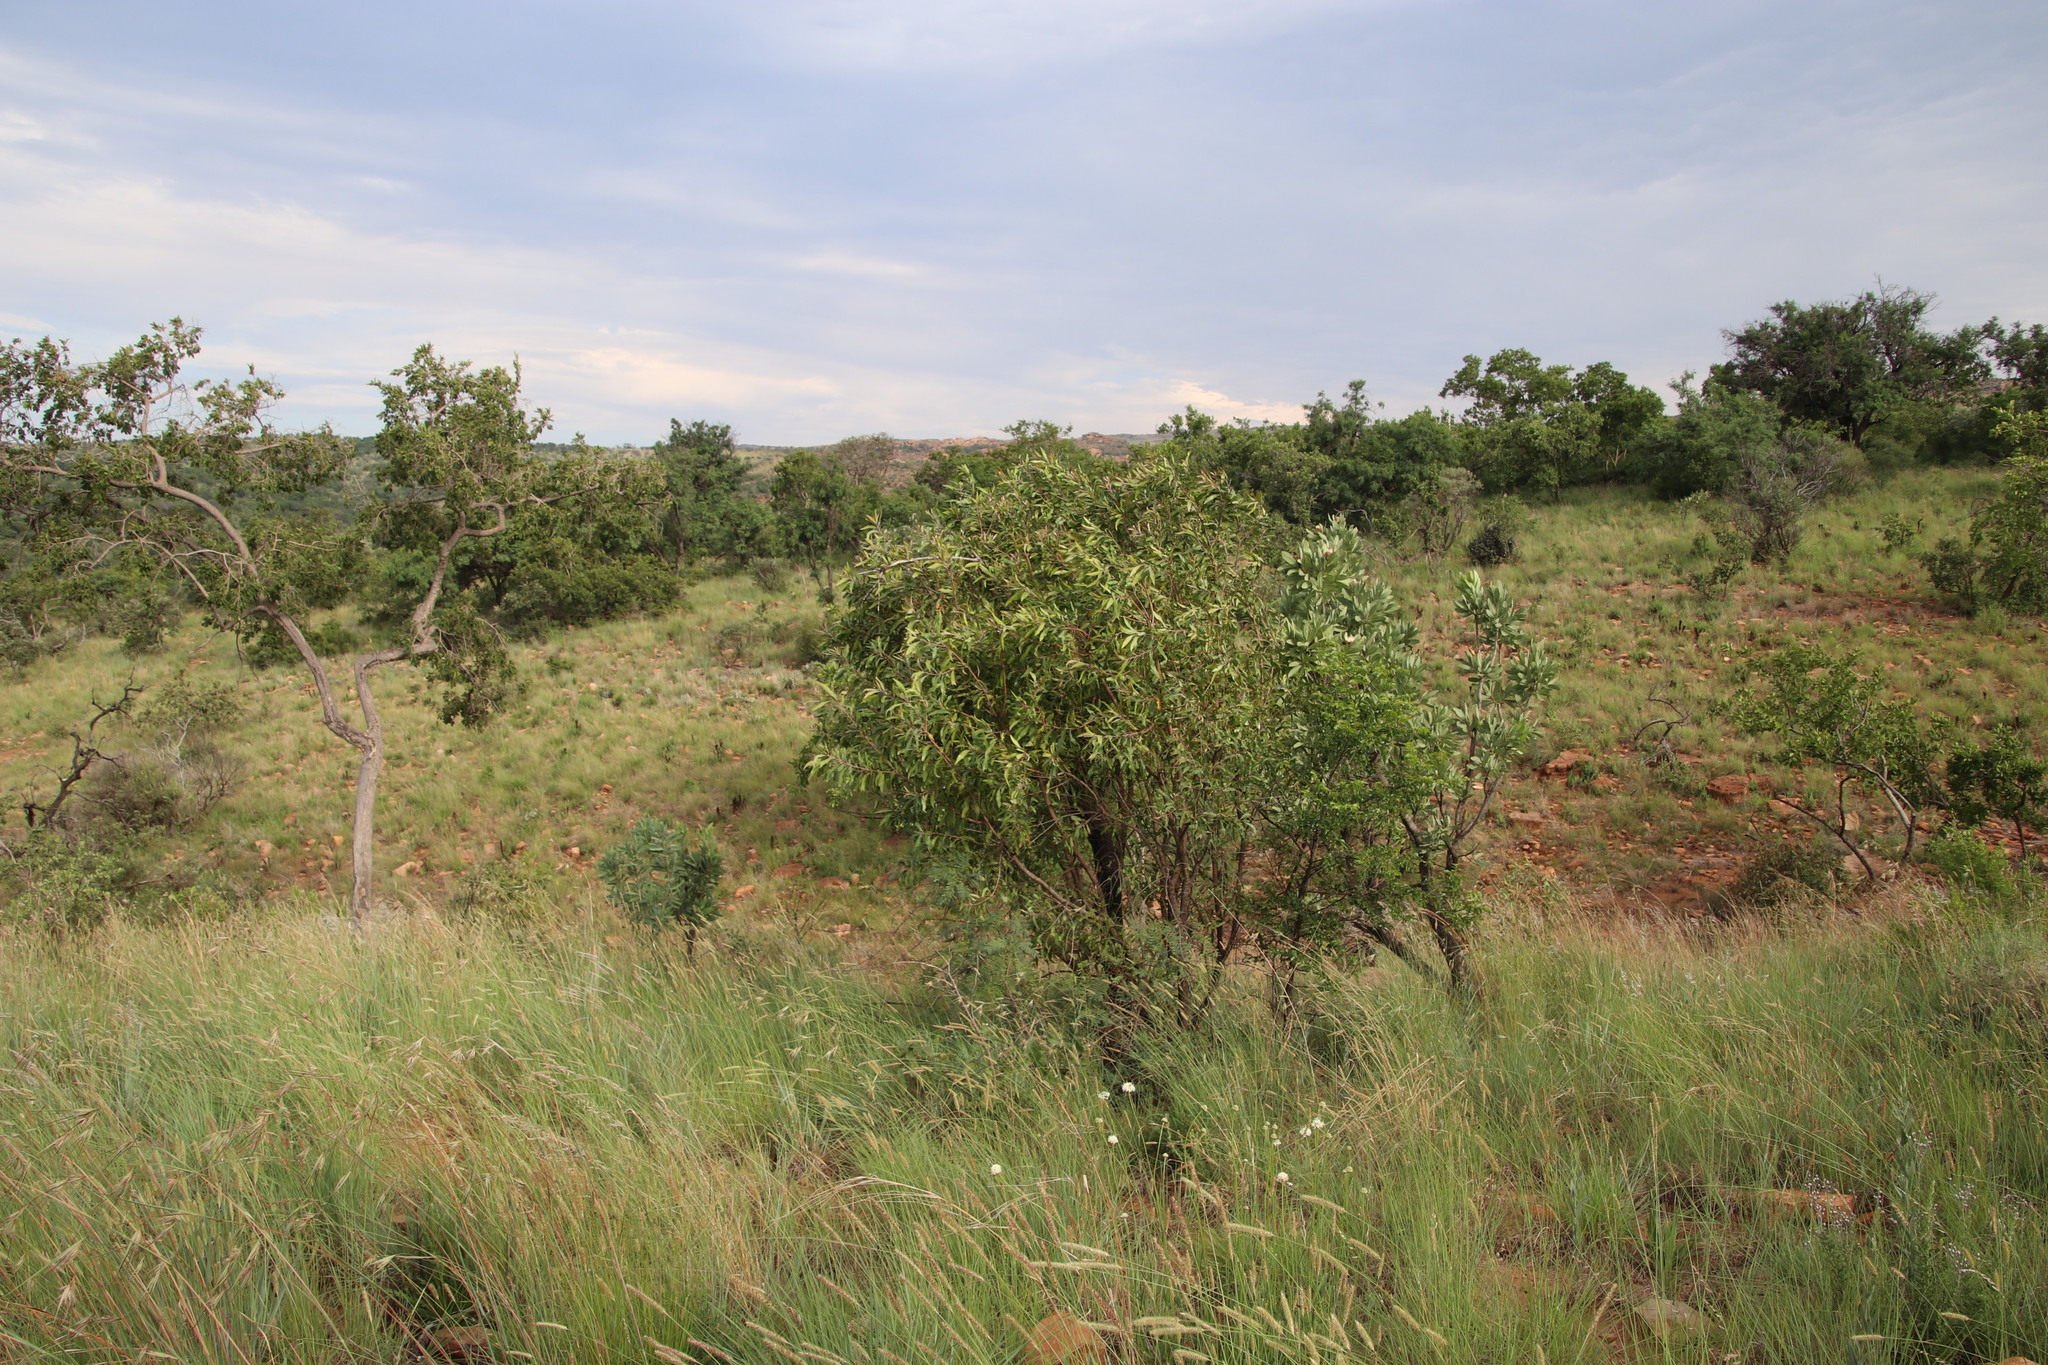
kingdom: Plantae
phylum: Tracheophyta
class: Magnoliopsida
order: Proteales
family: Proteaceae
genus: Faurea
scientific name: Faurea saligna
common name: African bean
